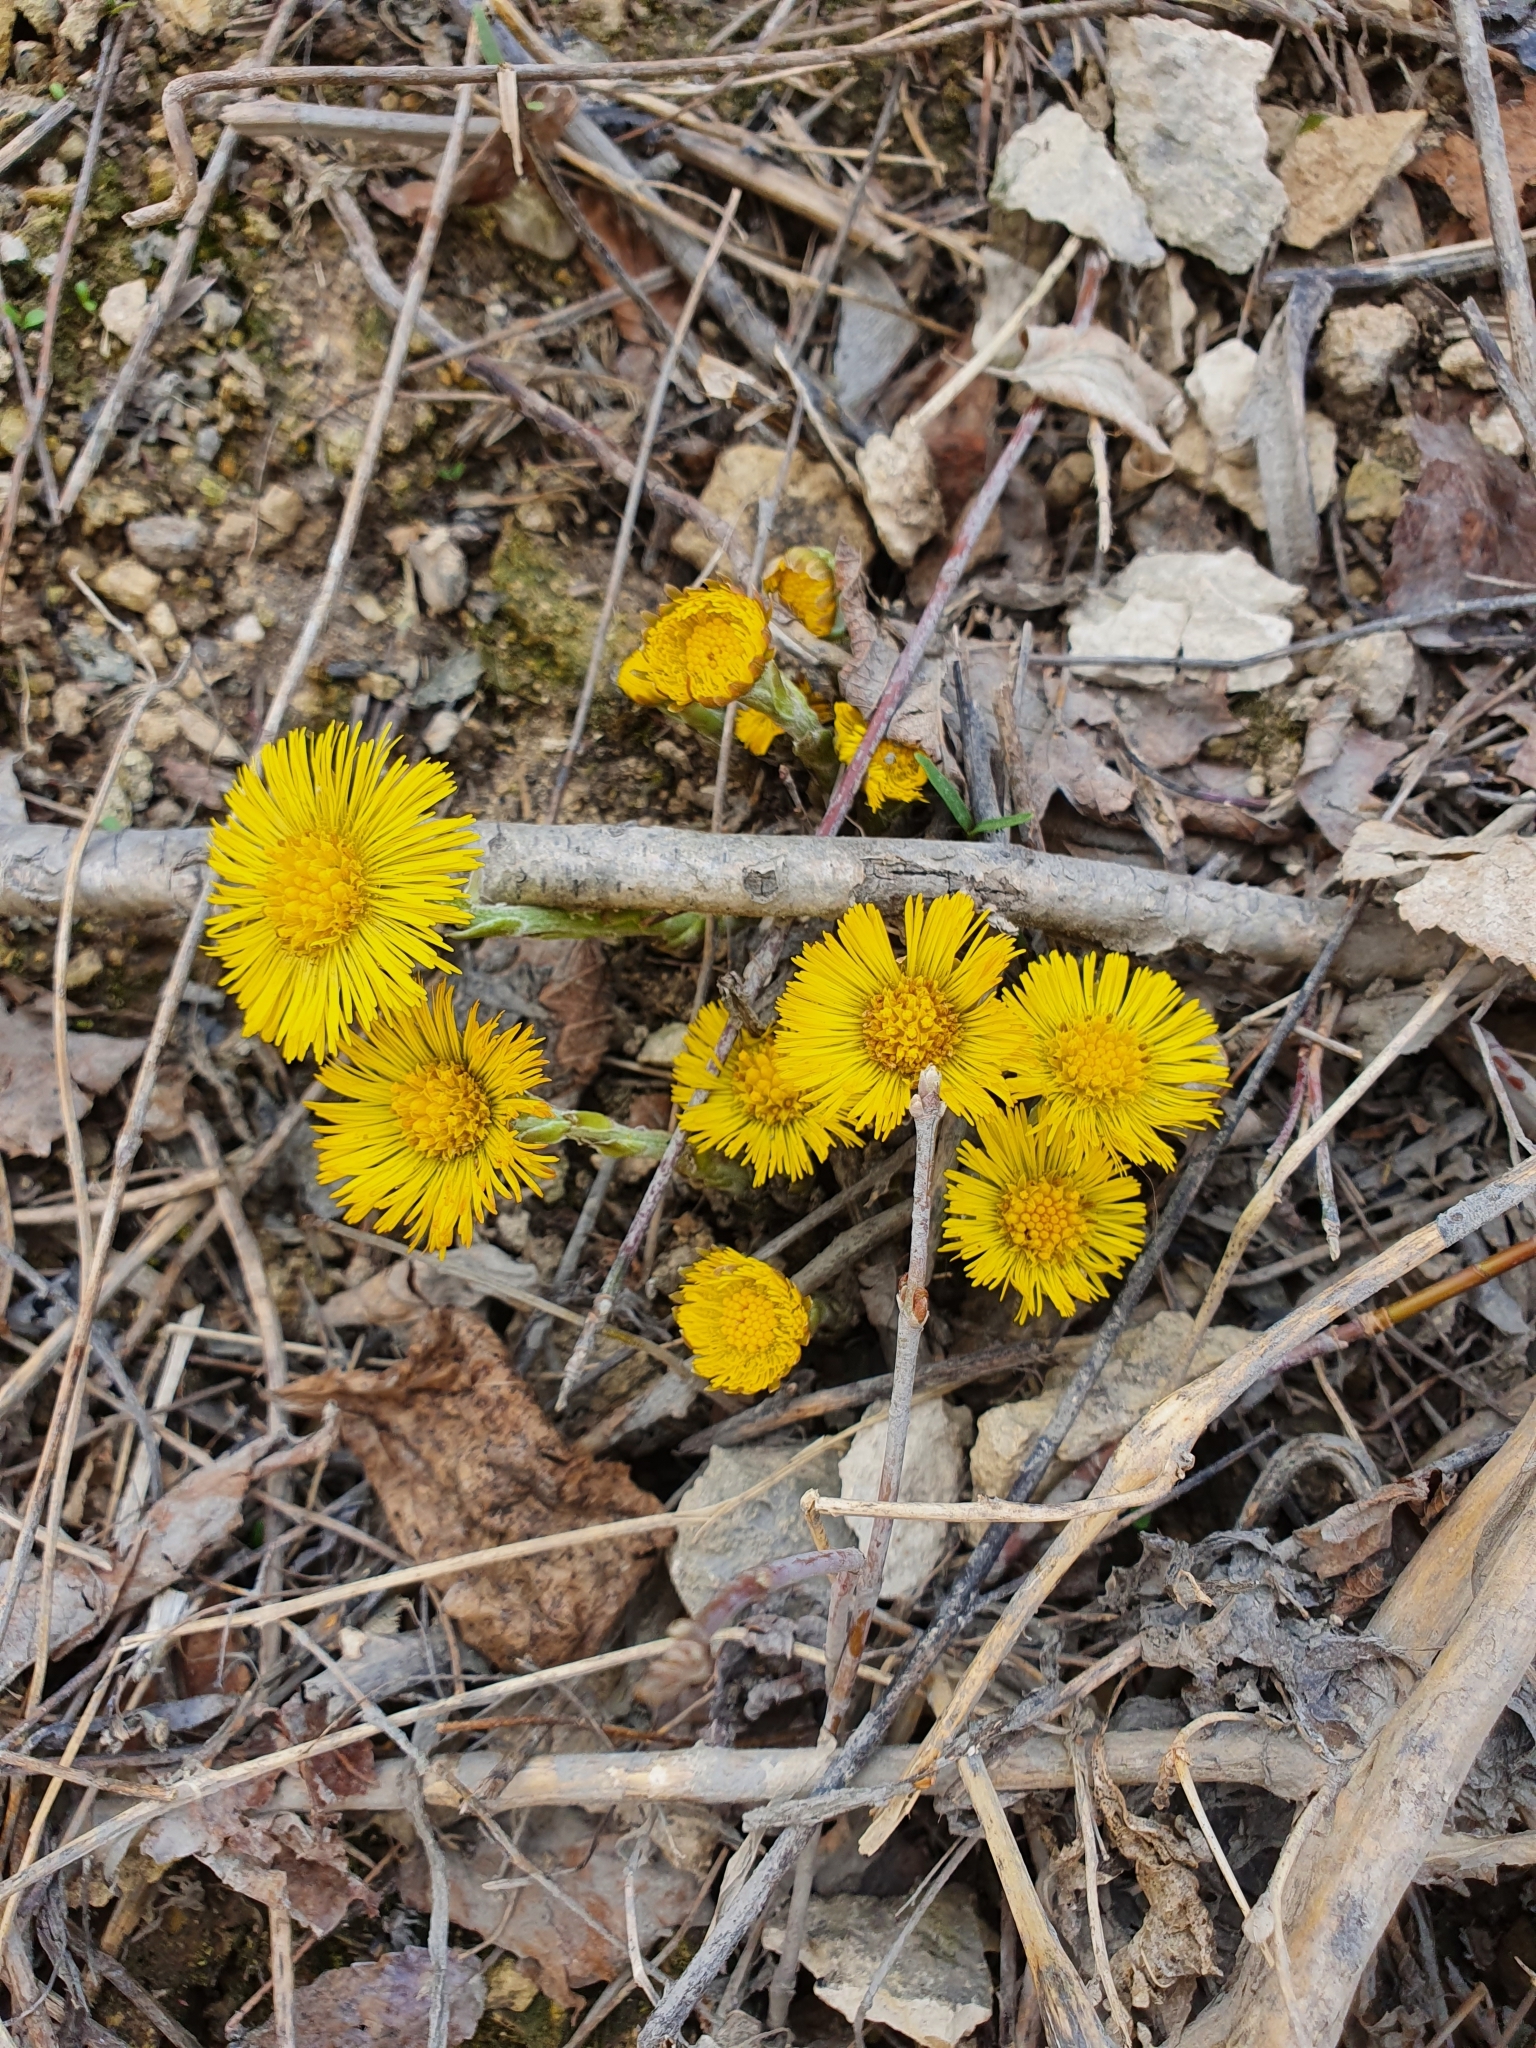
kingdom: Plantae
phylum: Tracheophyta
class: Magnoliopsida
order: Asterales
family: Asteraceae
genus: Tussilago
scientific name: Tussilago farfara
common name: Coltsfoot
